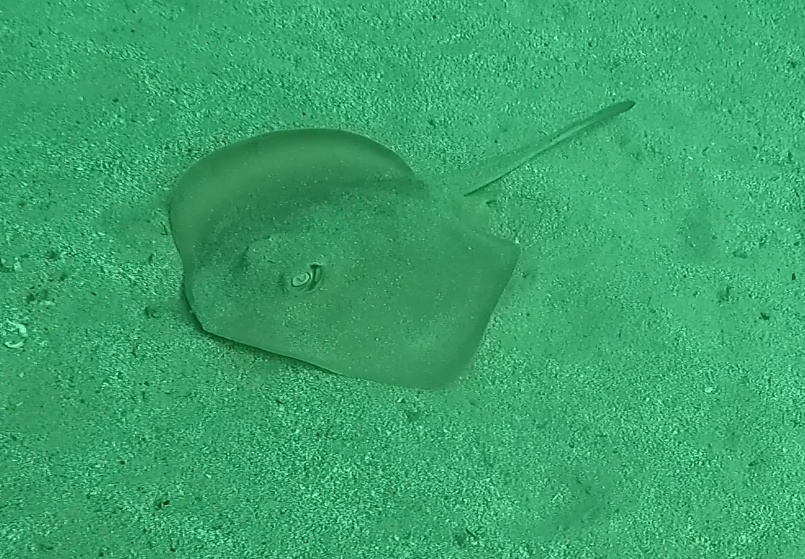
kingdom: Animalia
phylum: Chordata
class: Elasmobranchii
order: Myliobatiformes
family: Urolophidae
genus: Trygonoptera
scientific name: Trygonoptera testacea
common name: Common stingaree
